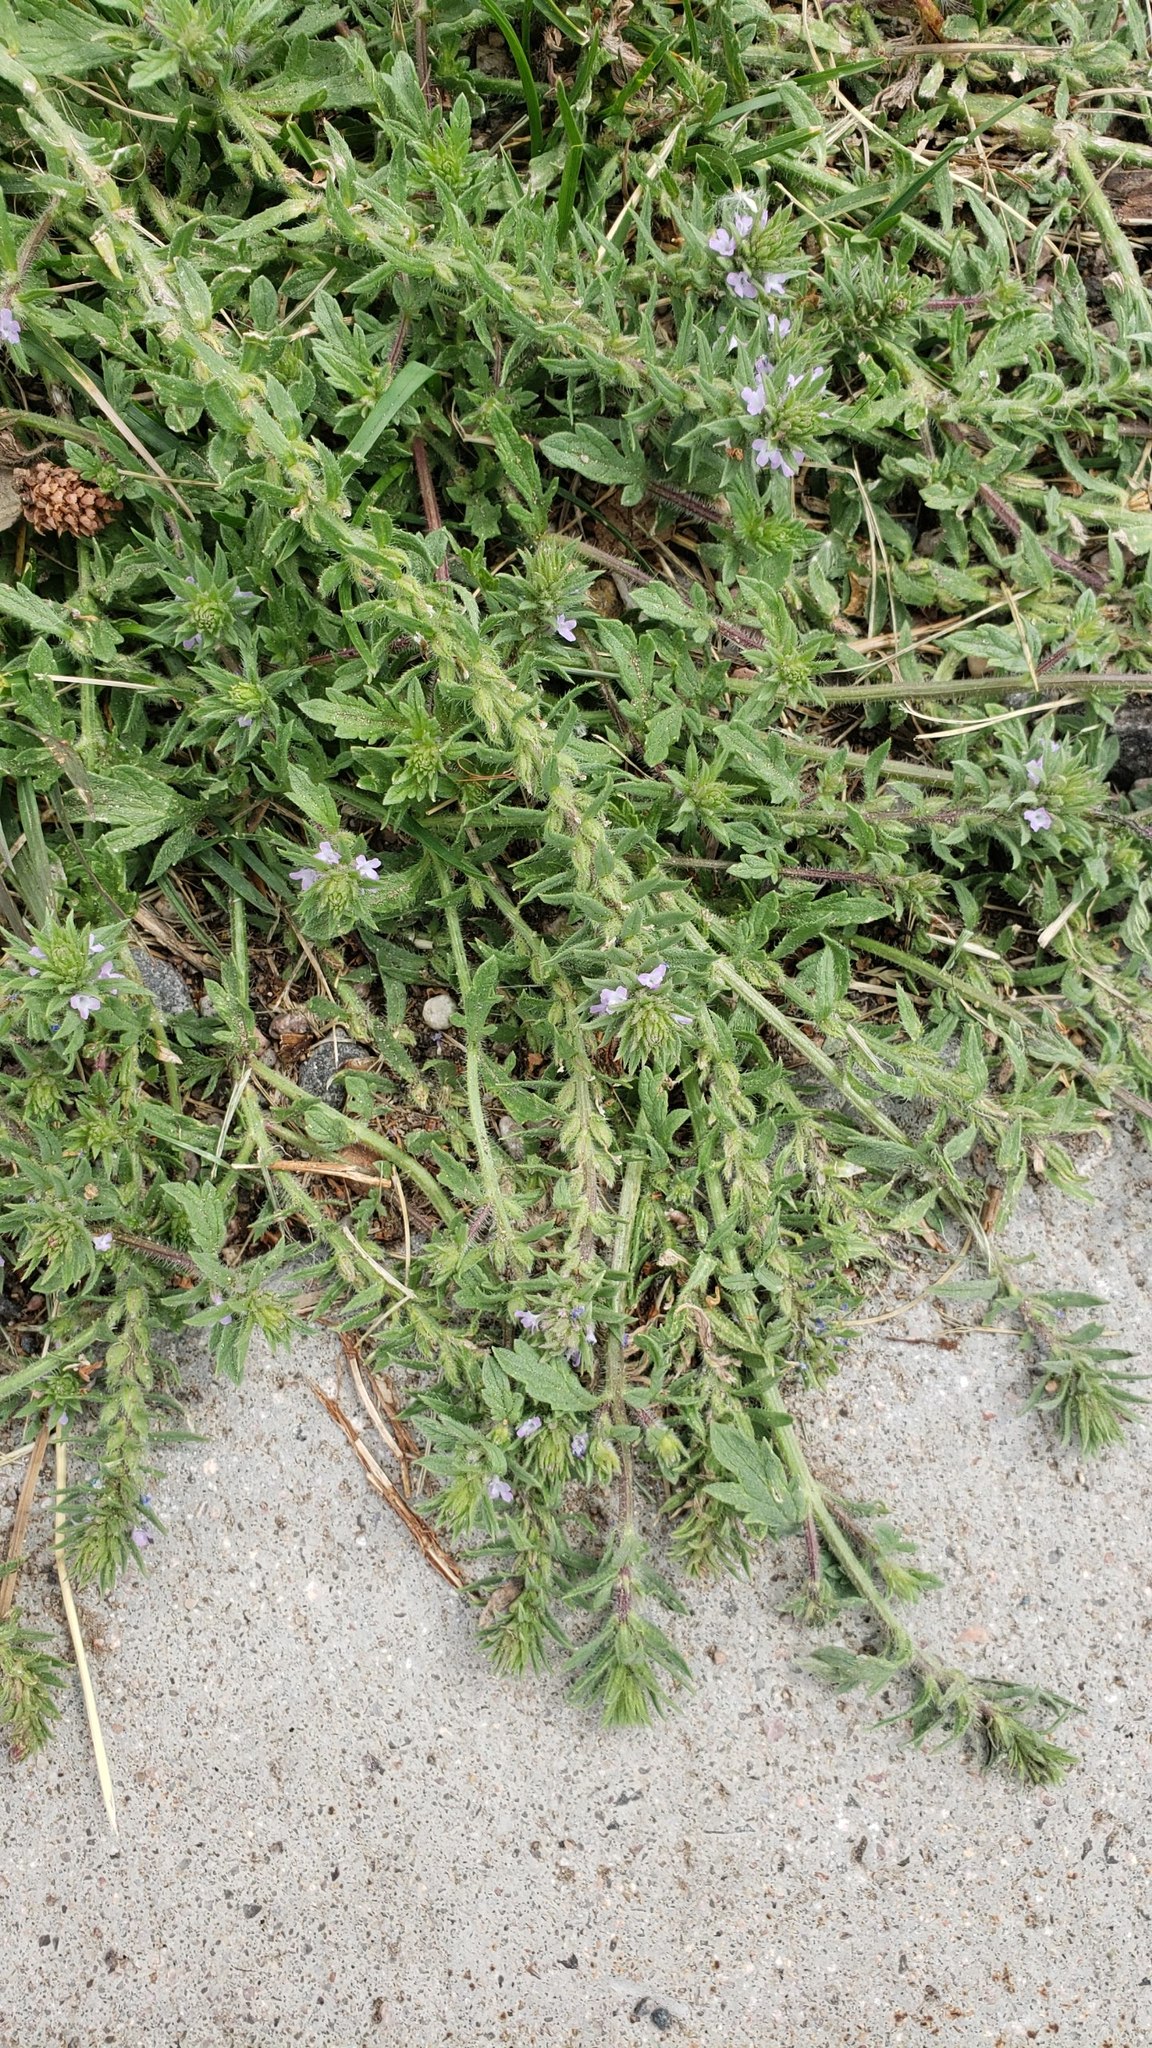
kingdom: Plantae
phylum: Tracheophyta
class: Magnoliopsida
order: Lamiales
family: Verbenaceae
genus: Verbena
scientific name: Verbena bracteata
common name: Bracted vervain
